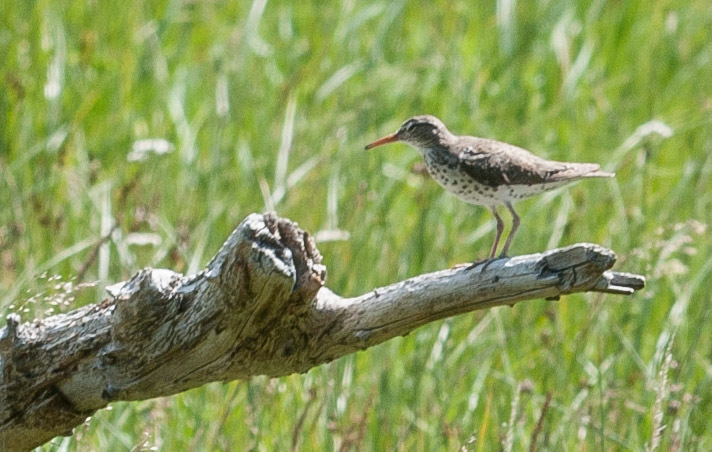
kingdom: Animalia
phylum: Chordata
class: Aves
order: Charadriiformes
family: Scolopacidae
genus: Actitis
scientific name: Actitis macularius
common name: Spotted sandpiper
